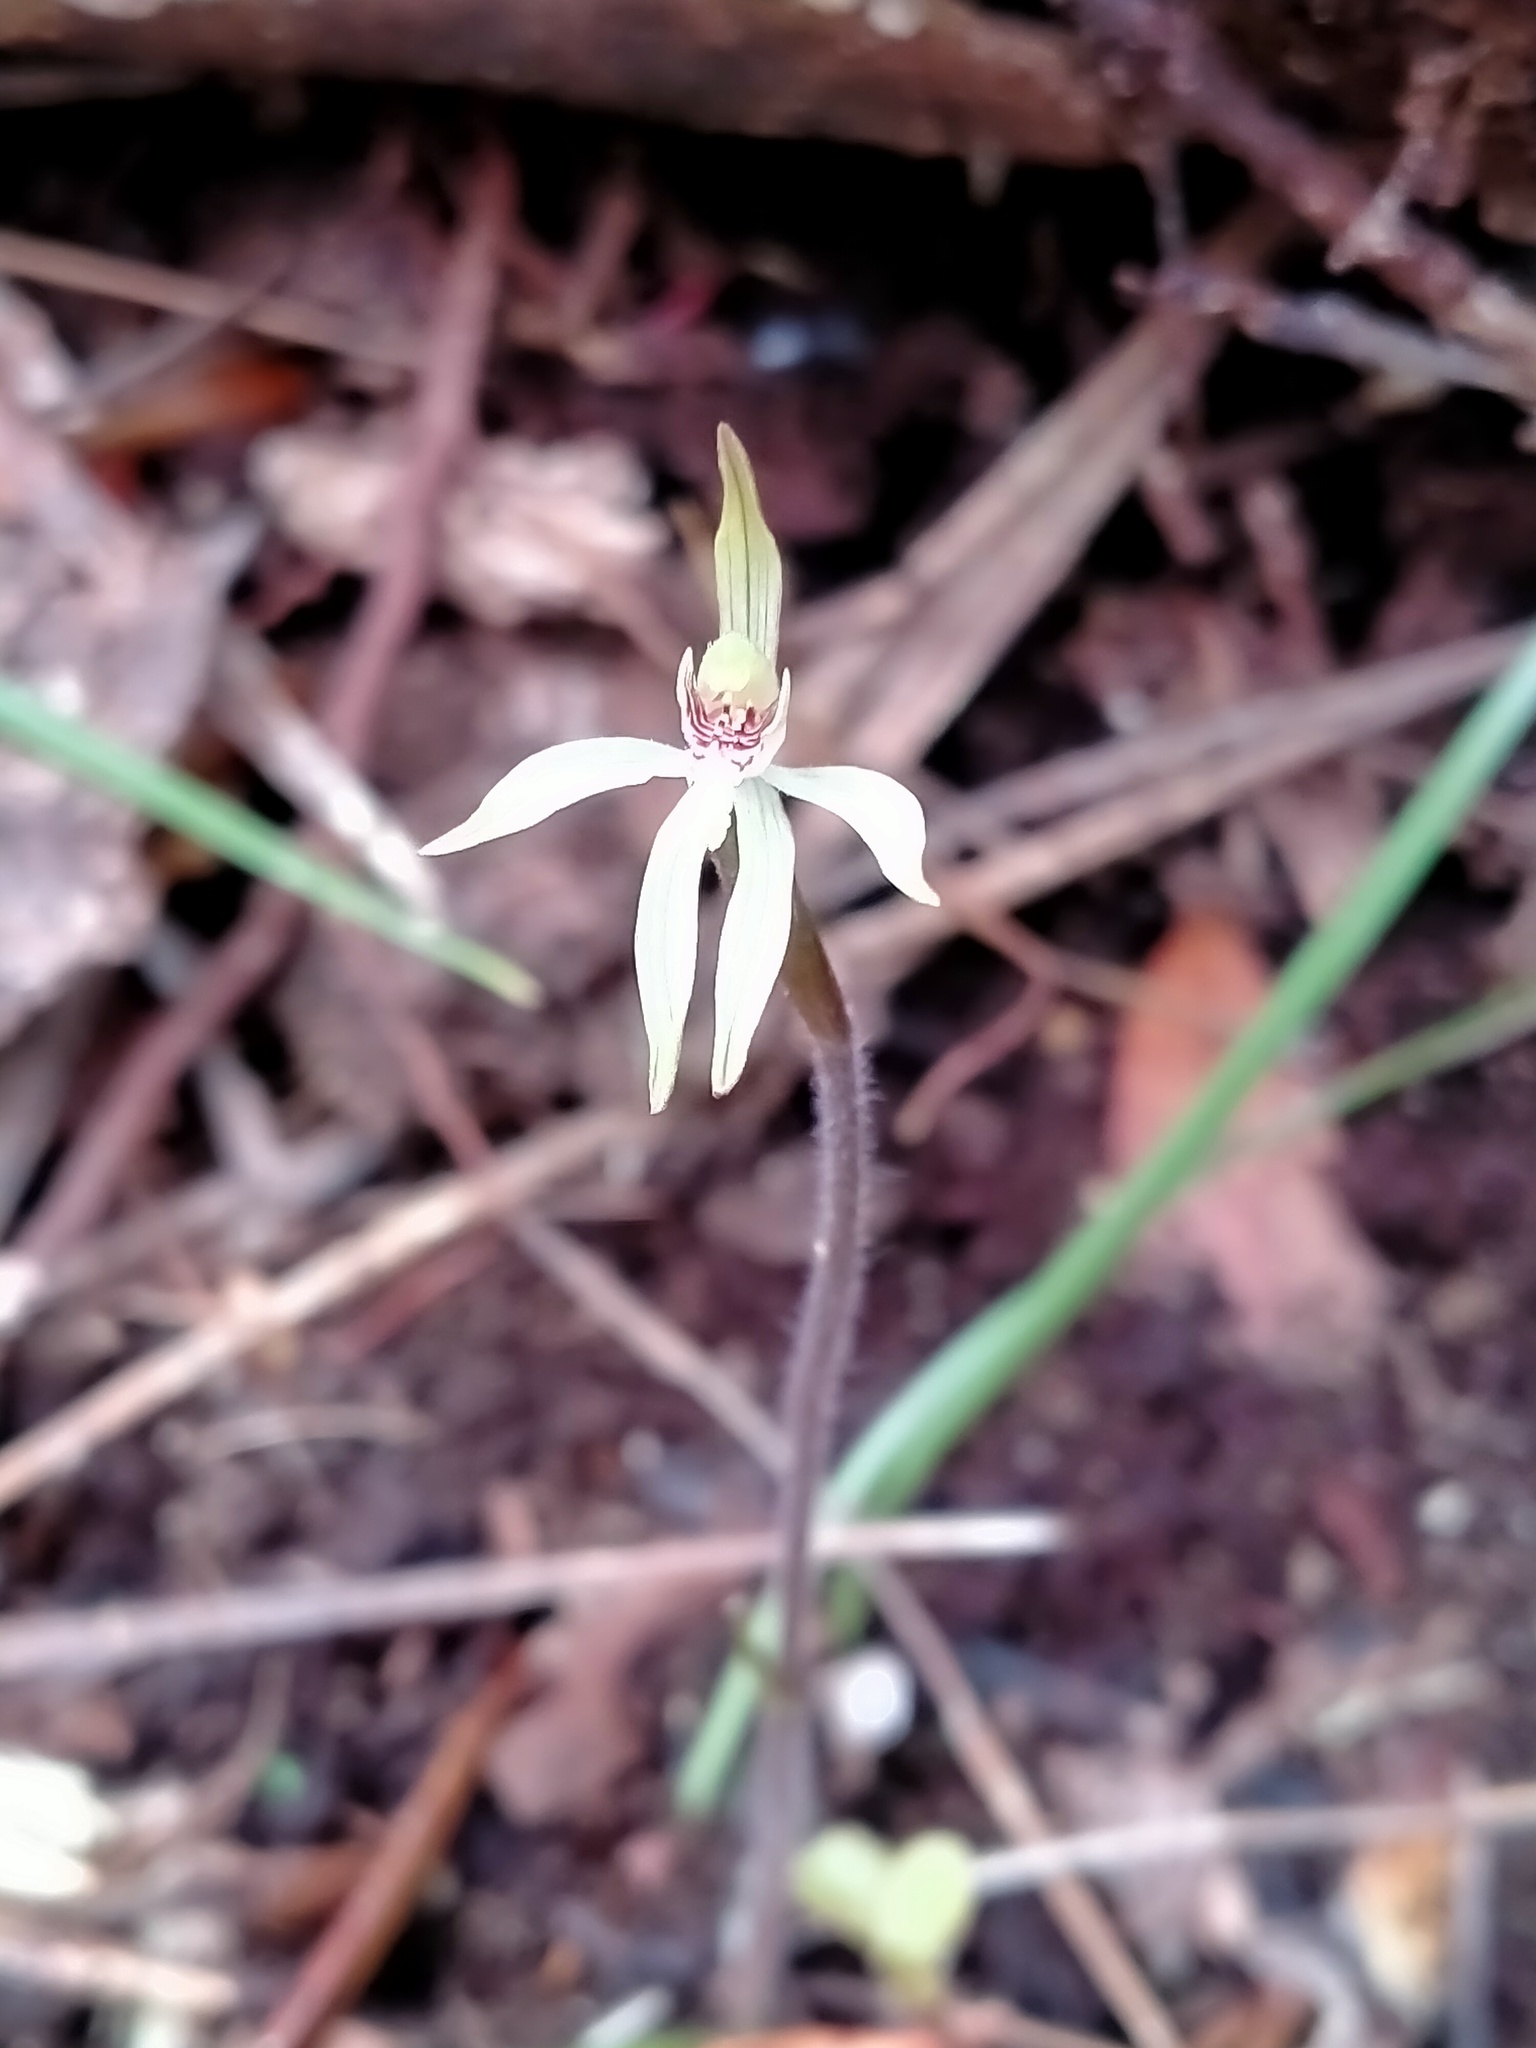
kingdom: Plantae
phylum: Tracheophyta
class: Liliopsida
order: Asparagales
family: Orchidaceae
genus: Caladenia
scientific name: Caladenia chlorostyla
